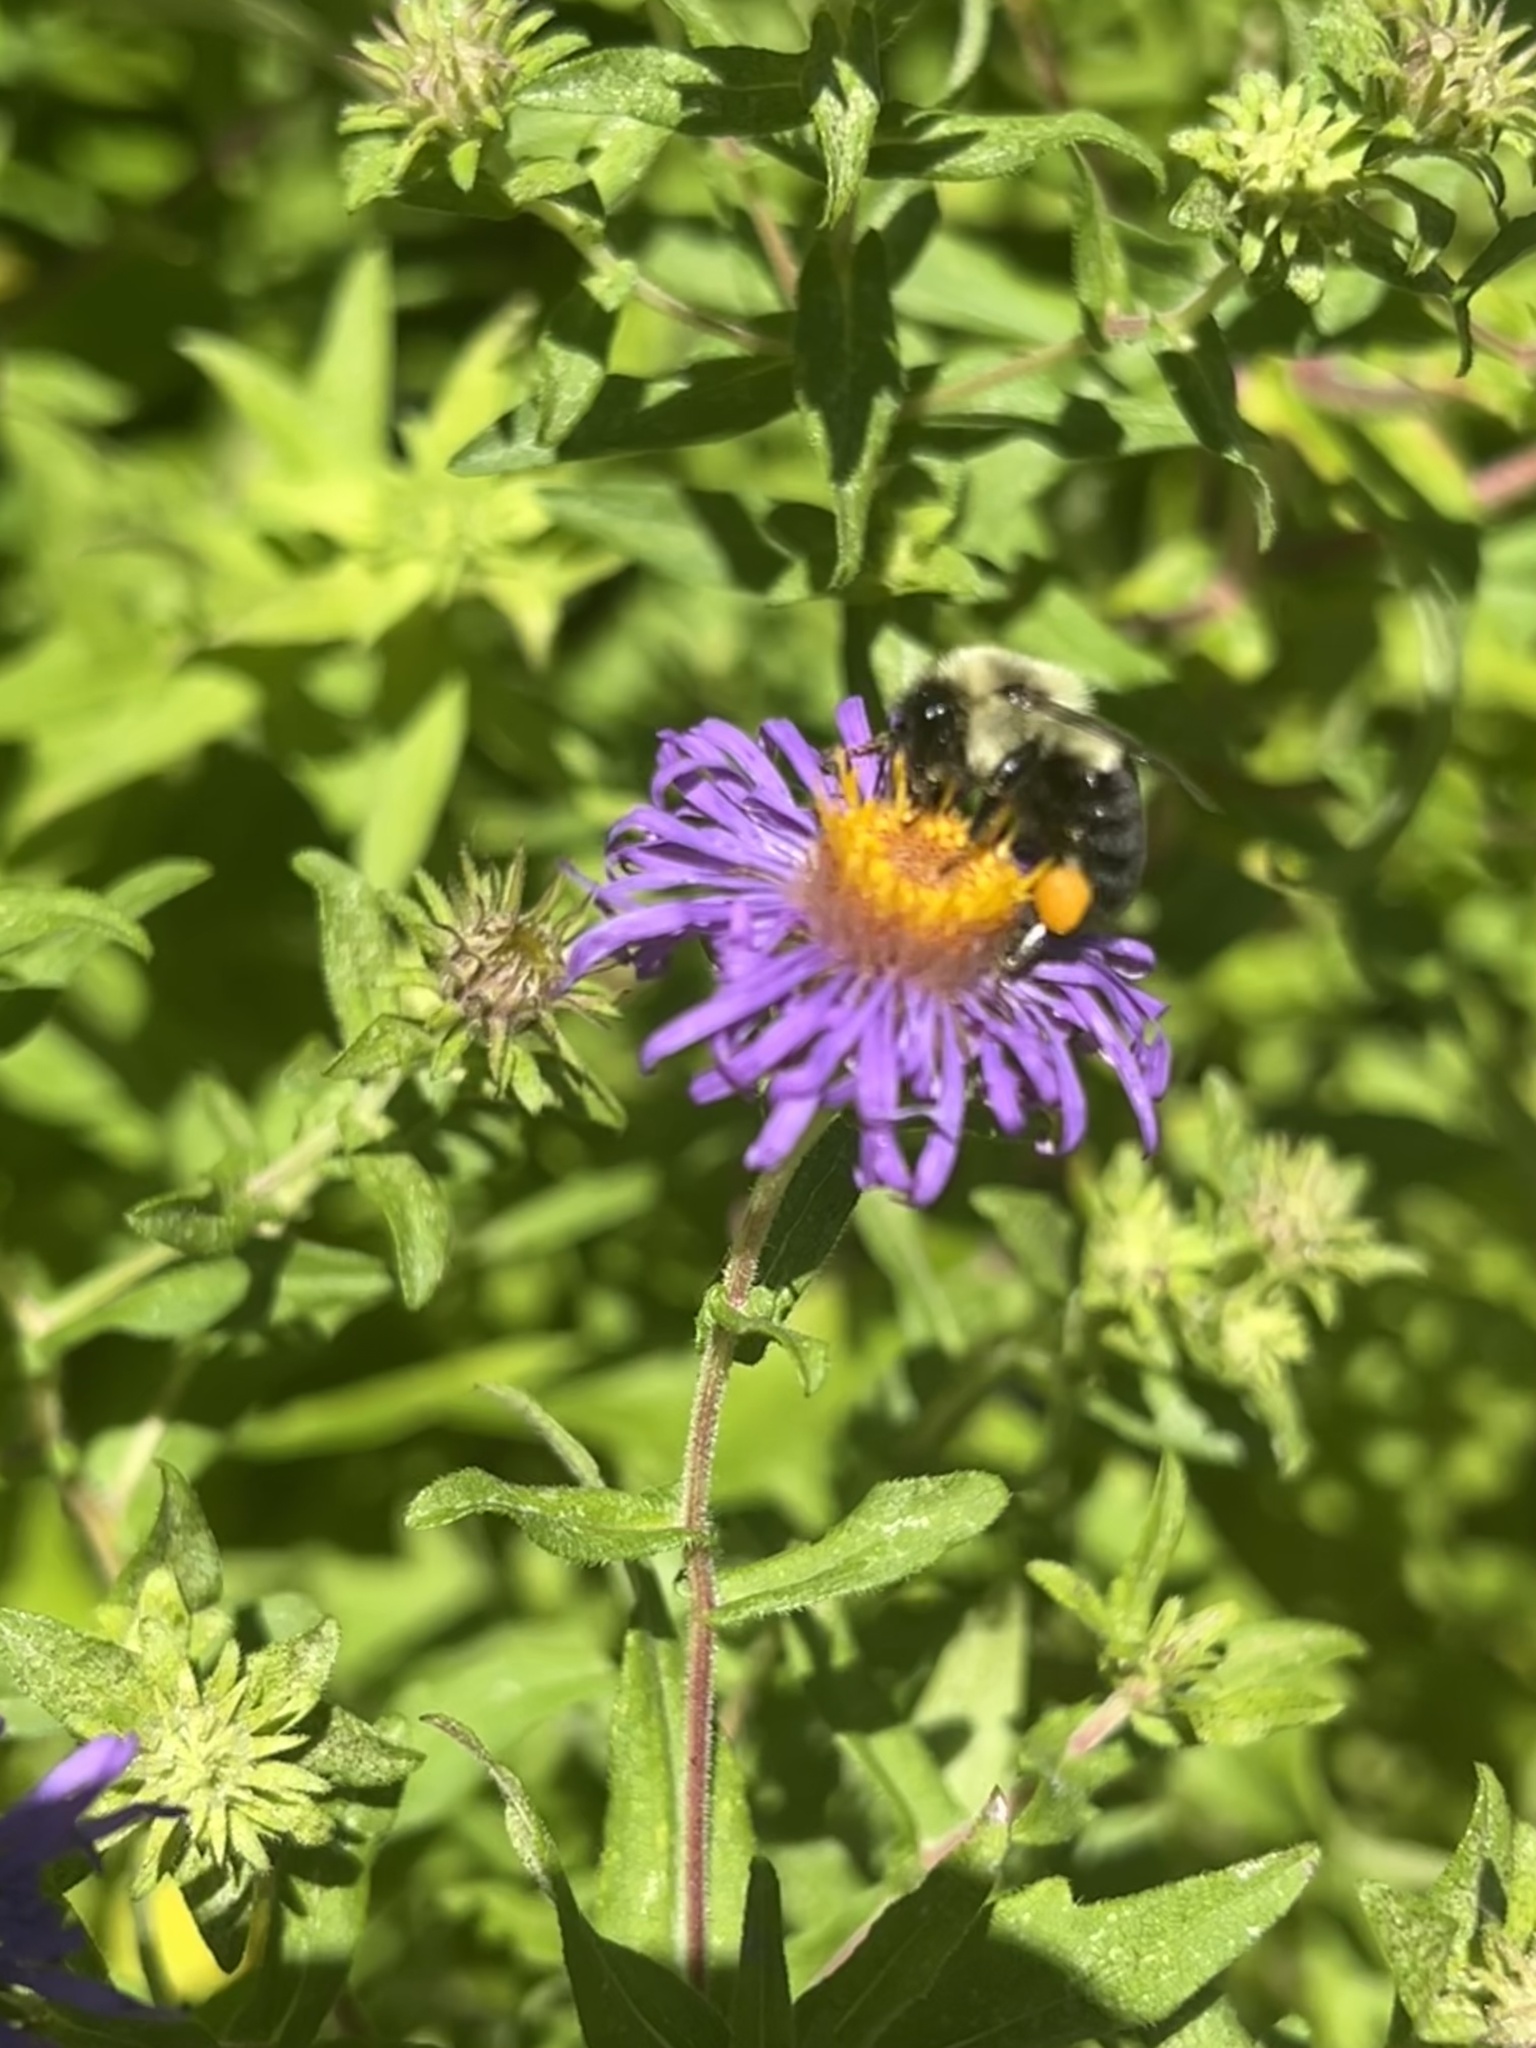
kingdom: Animalia
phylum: Arthropoda
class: Insecta
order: Hymenoptera
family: Apidae
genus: Bombus
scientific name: Bombus impatiens
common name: Common eastern bumble bee
